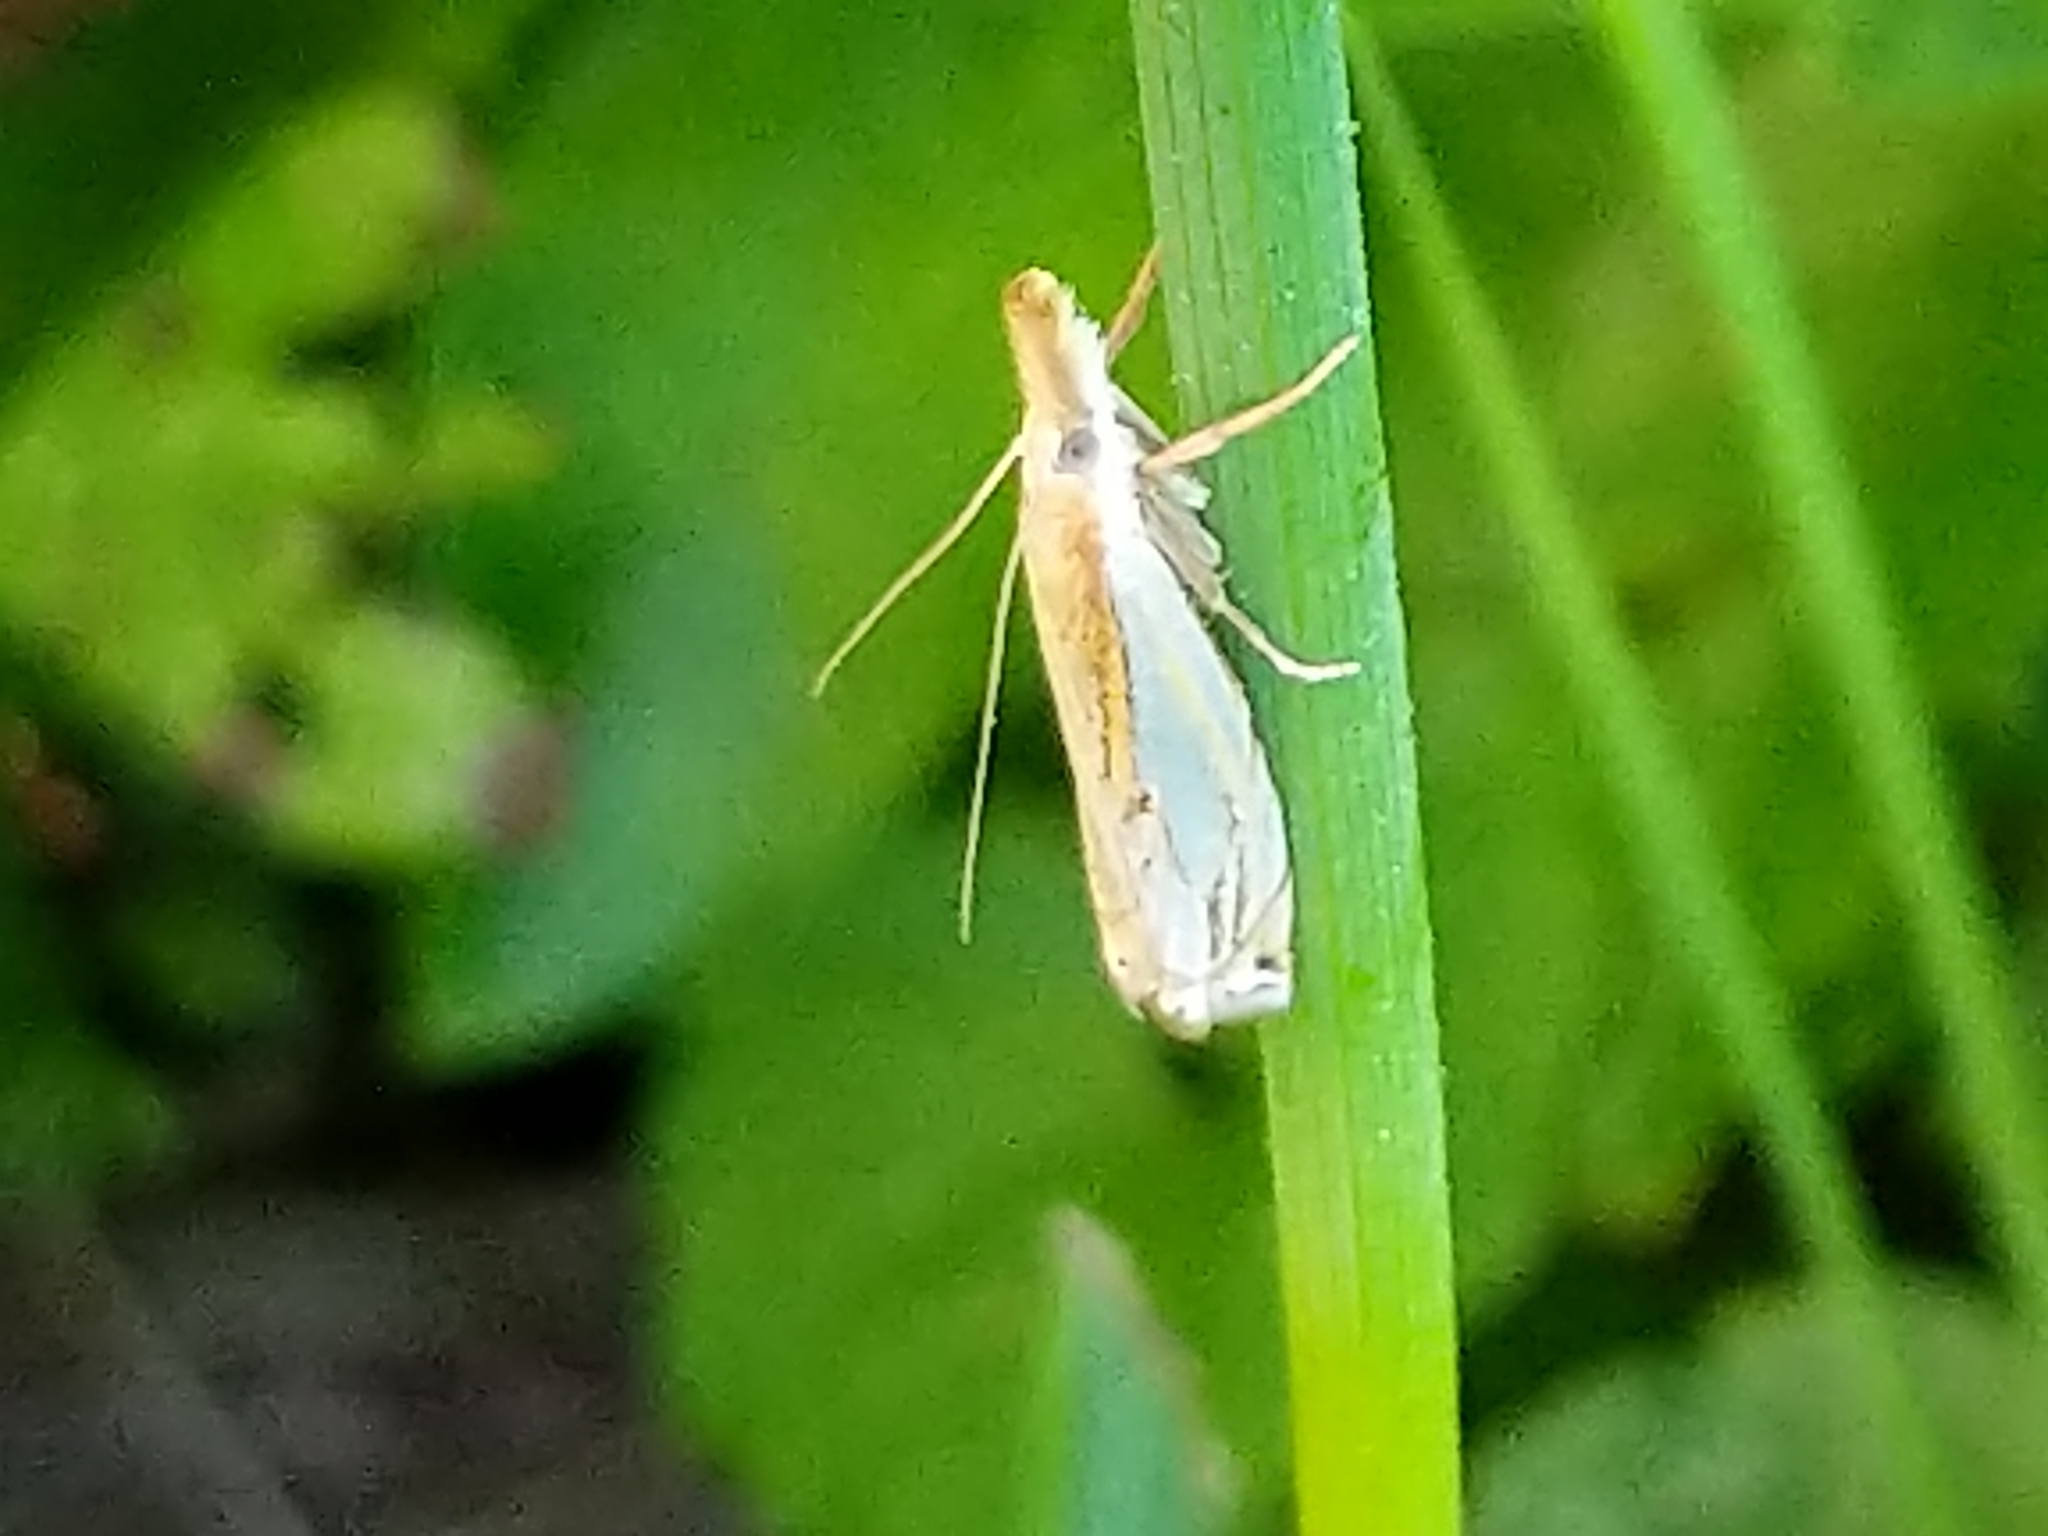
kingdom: Animalia
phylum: Arthropoda
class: Insecta
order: Lepidoptera
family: Crambidae
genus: Crambus
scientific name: Crambus agitatellus
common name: Double-banded grass-veneer
